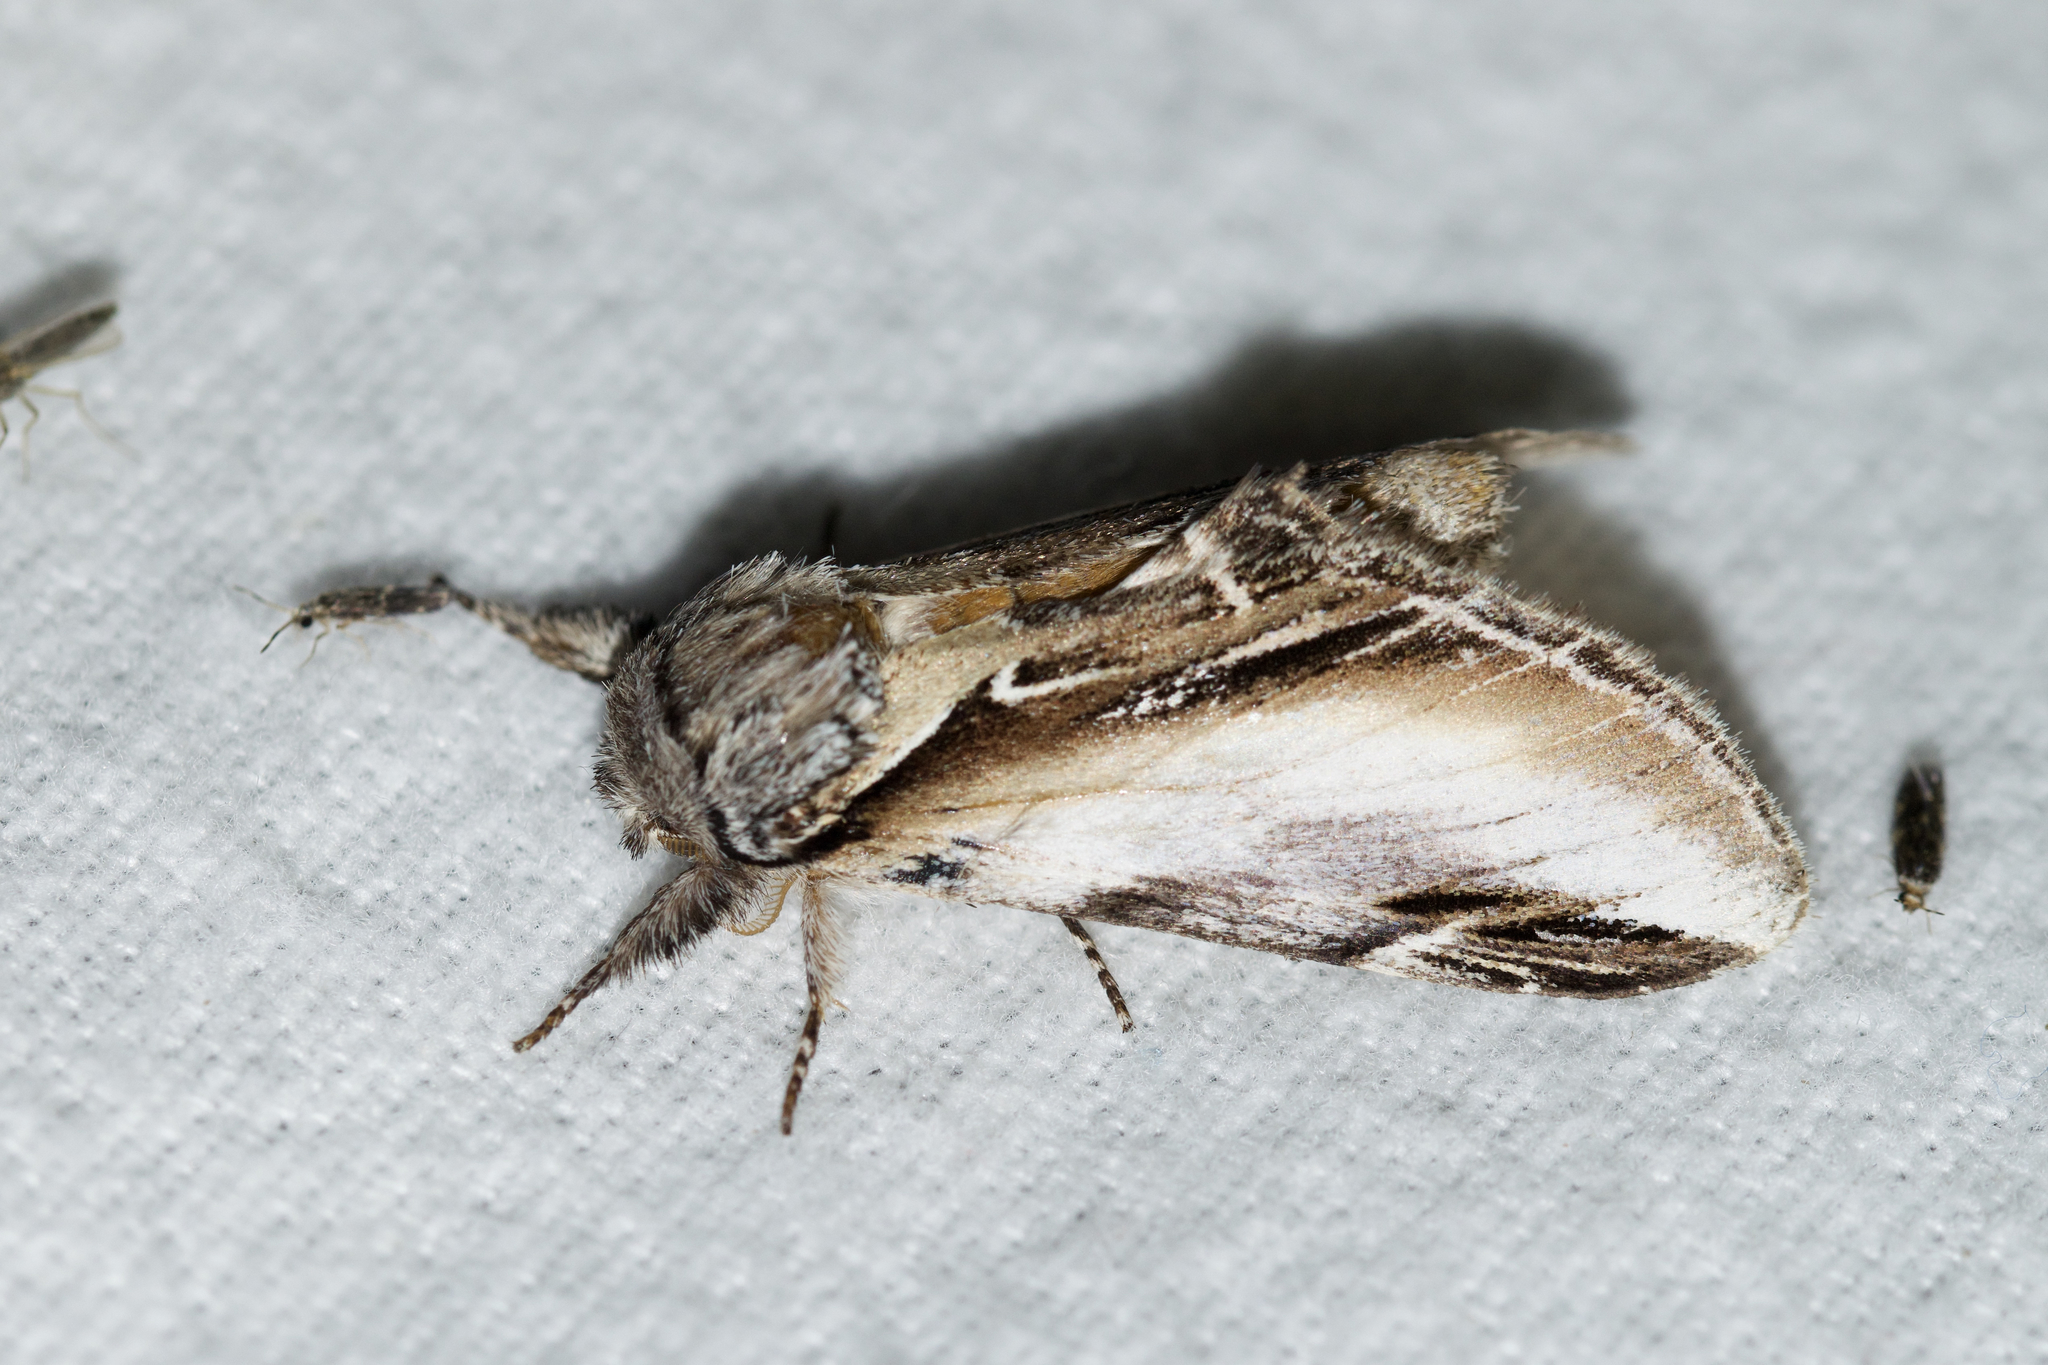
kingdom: Animalia
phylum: Arthropoda
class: Insecta
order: Lepidoptera
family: Notodontidae
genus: Pheosia
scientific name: Pheosia rimosa
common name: Black-rimmed prominent
